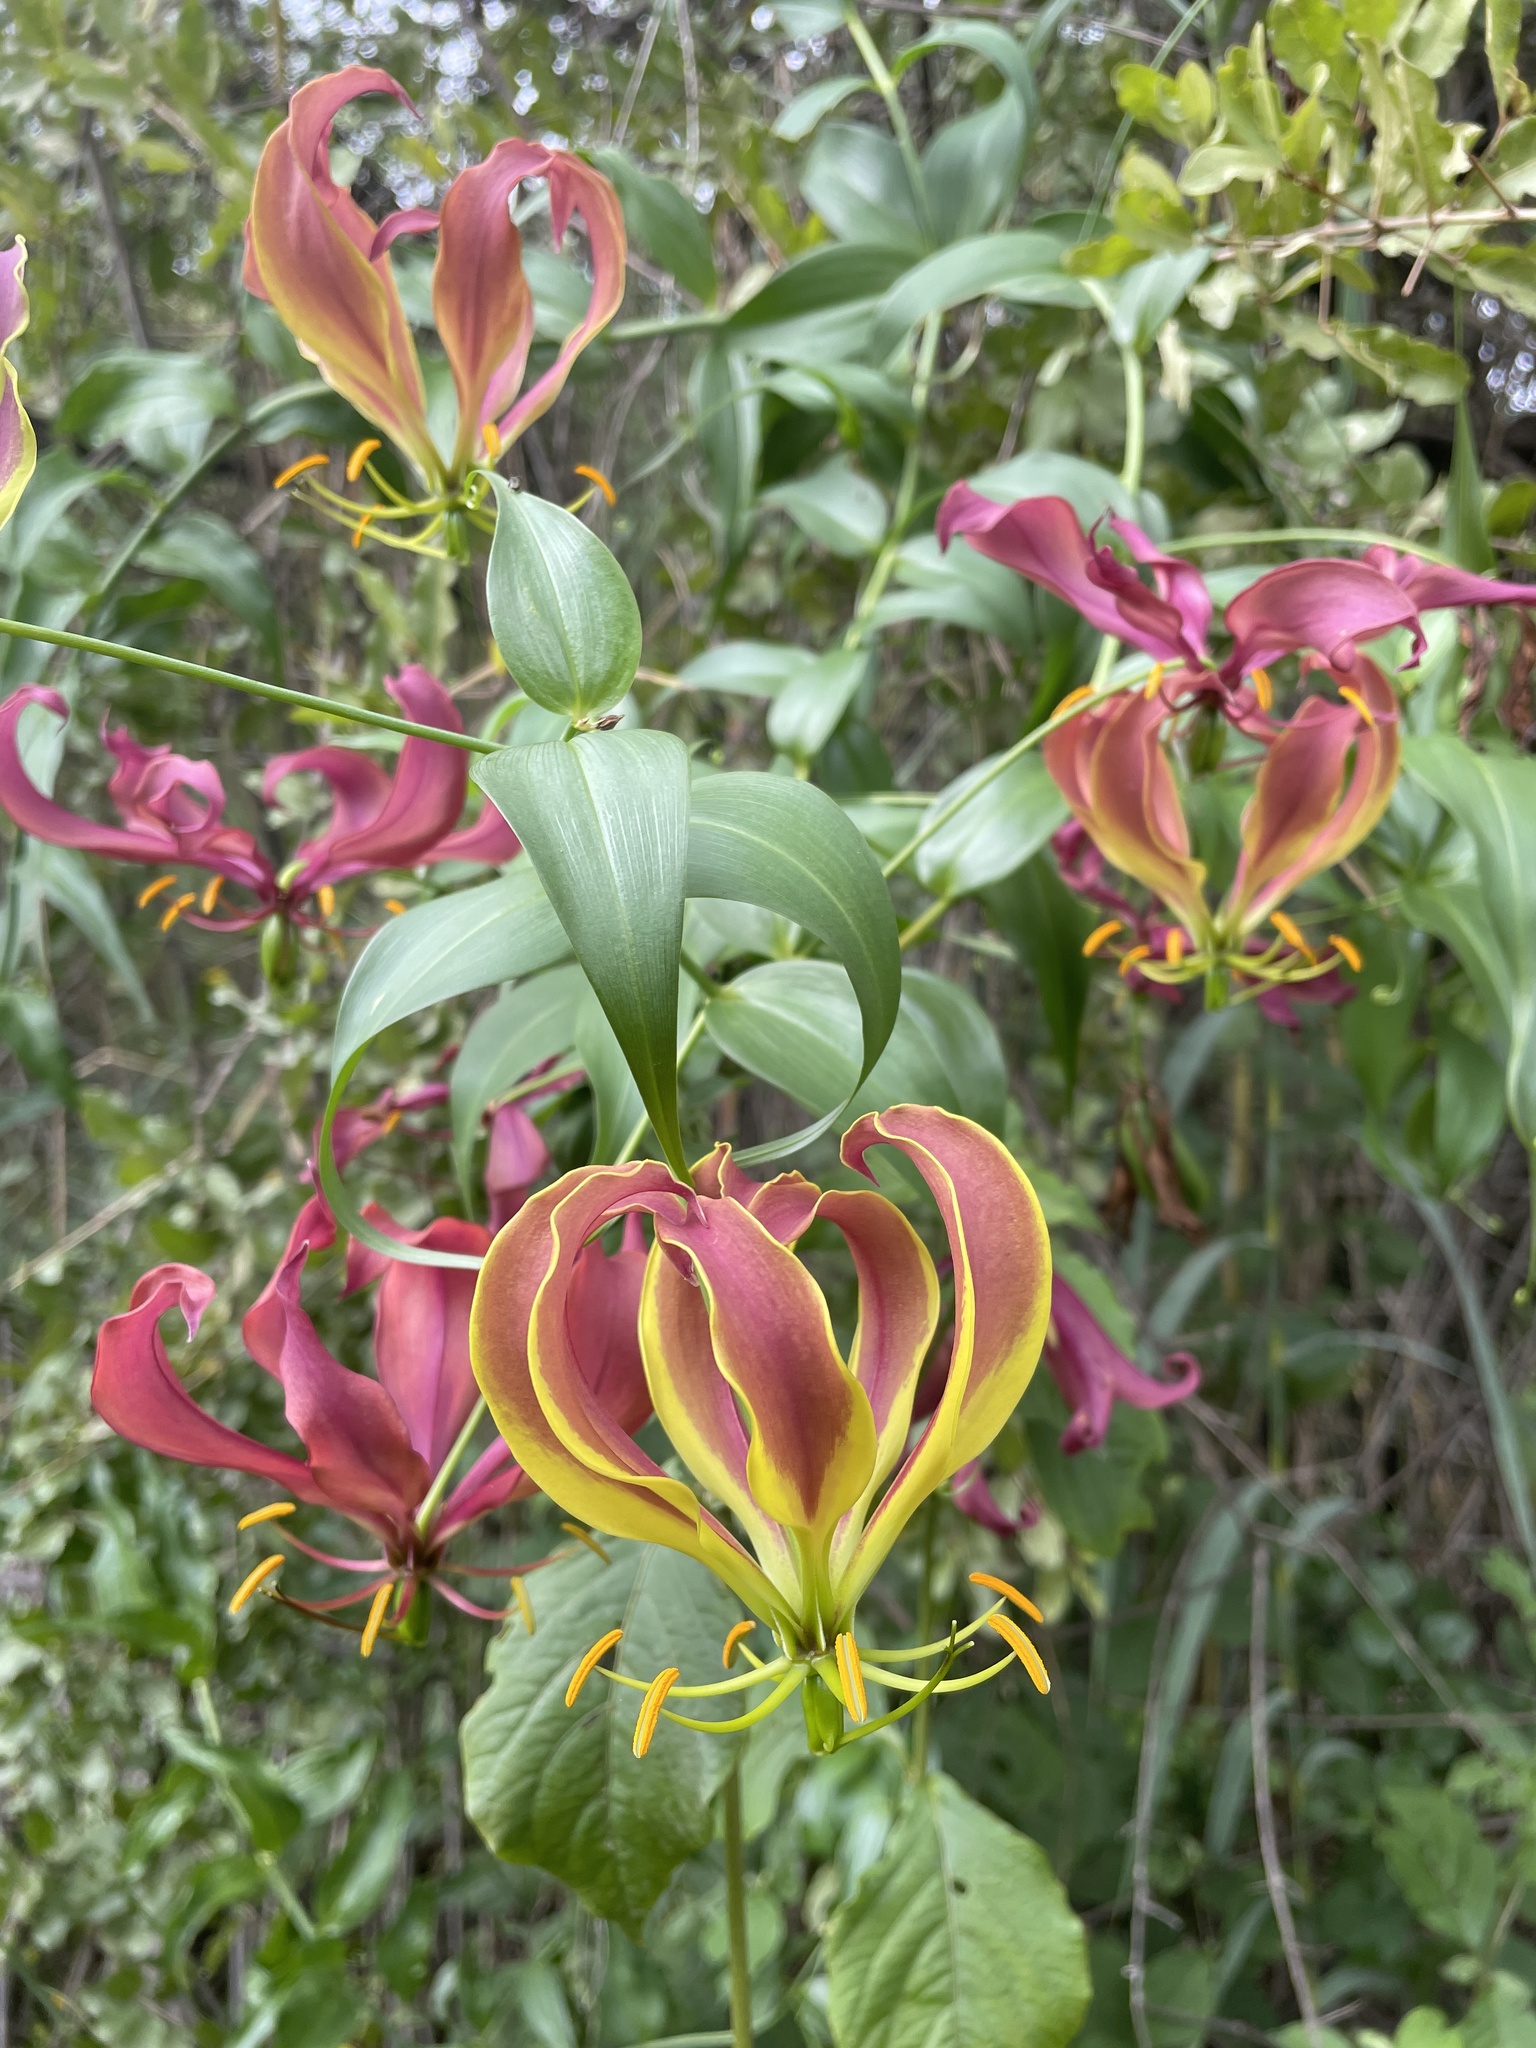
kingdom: Plantae
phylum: Tracheophyta
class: Liliopsida
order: Liliales
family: Colchicaceae
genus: Gloriosa
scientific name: Gloriosa superba
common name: Flame lily
